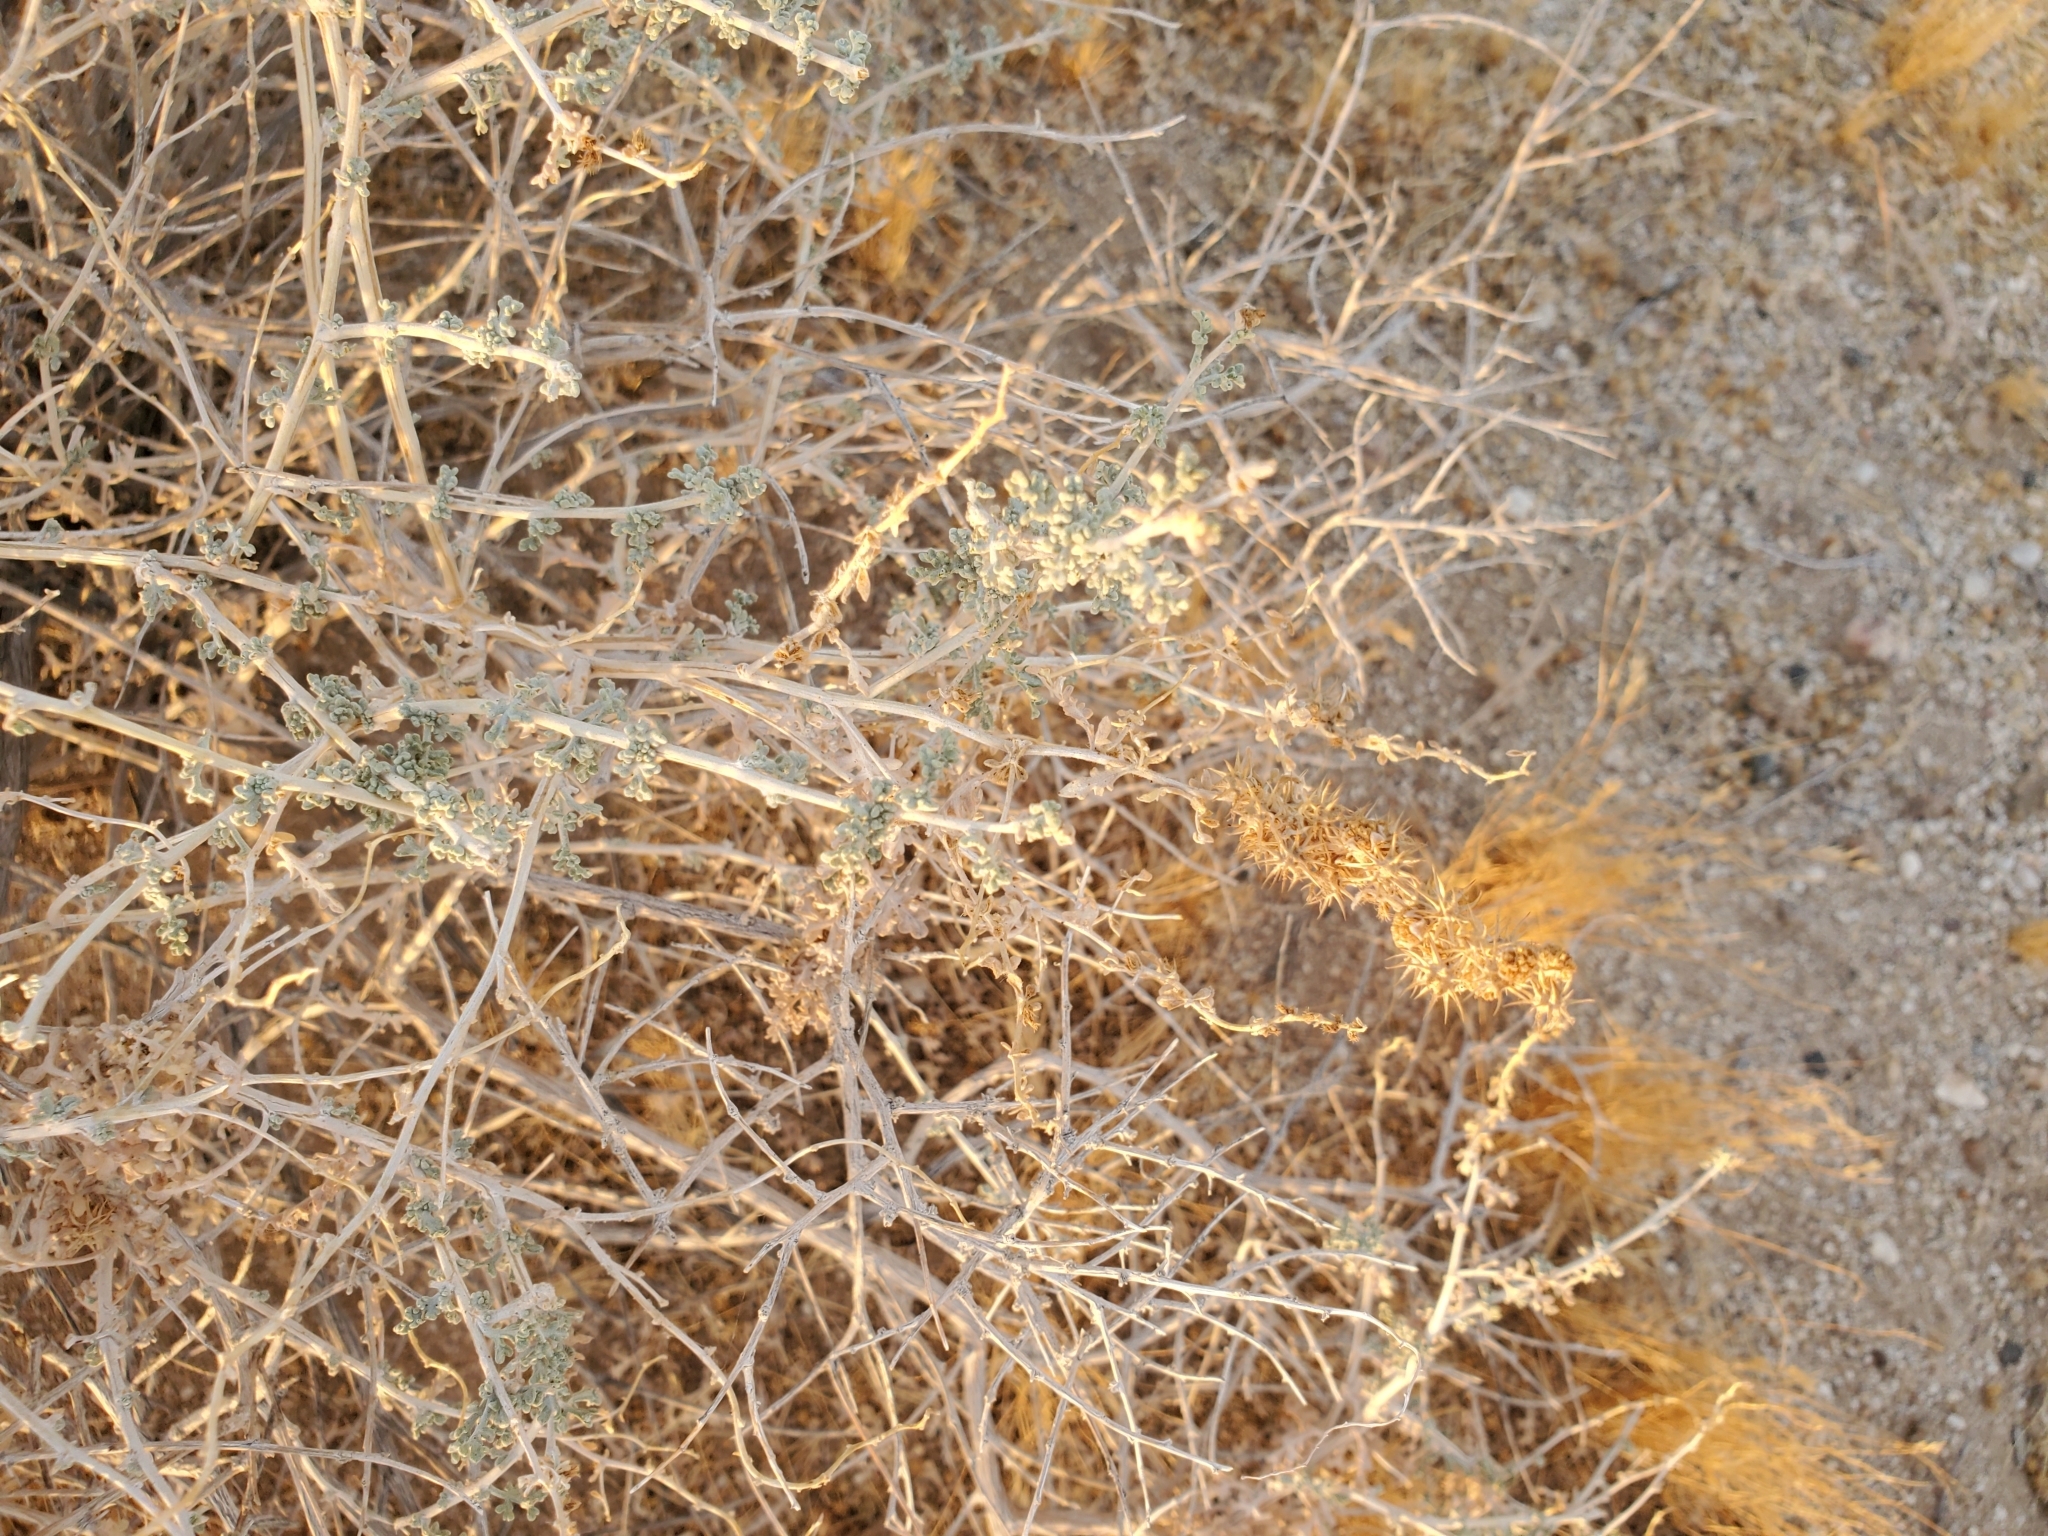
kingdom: Plantae
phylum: Tracheophyta
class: Magnoliopsida
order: Asterales
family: Asteraceae
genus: Ambrosia
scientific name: Ambrosia dumosa
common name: Bur-sage
